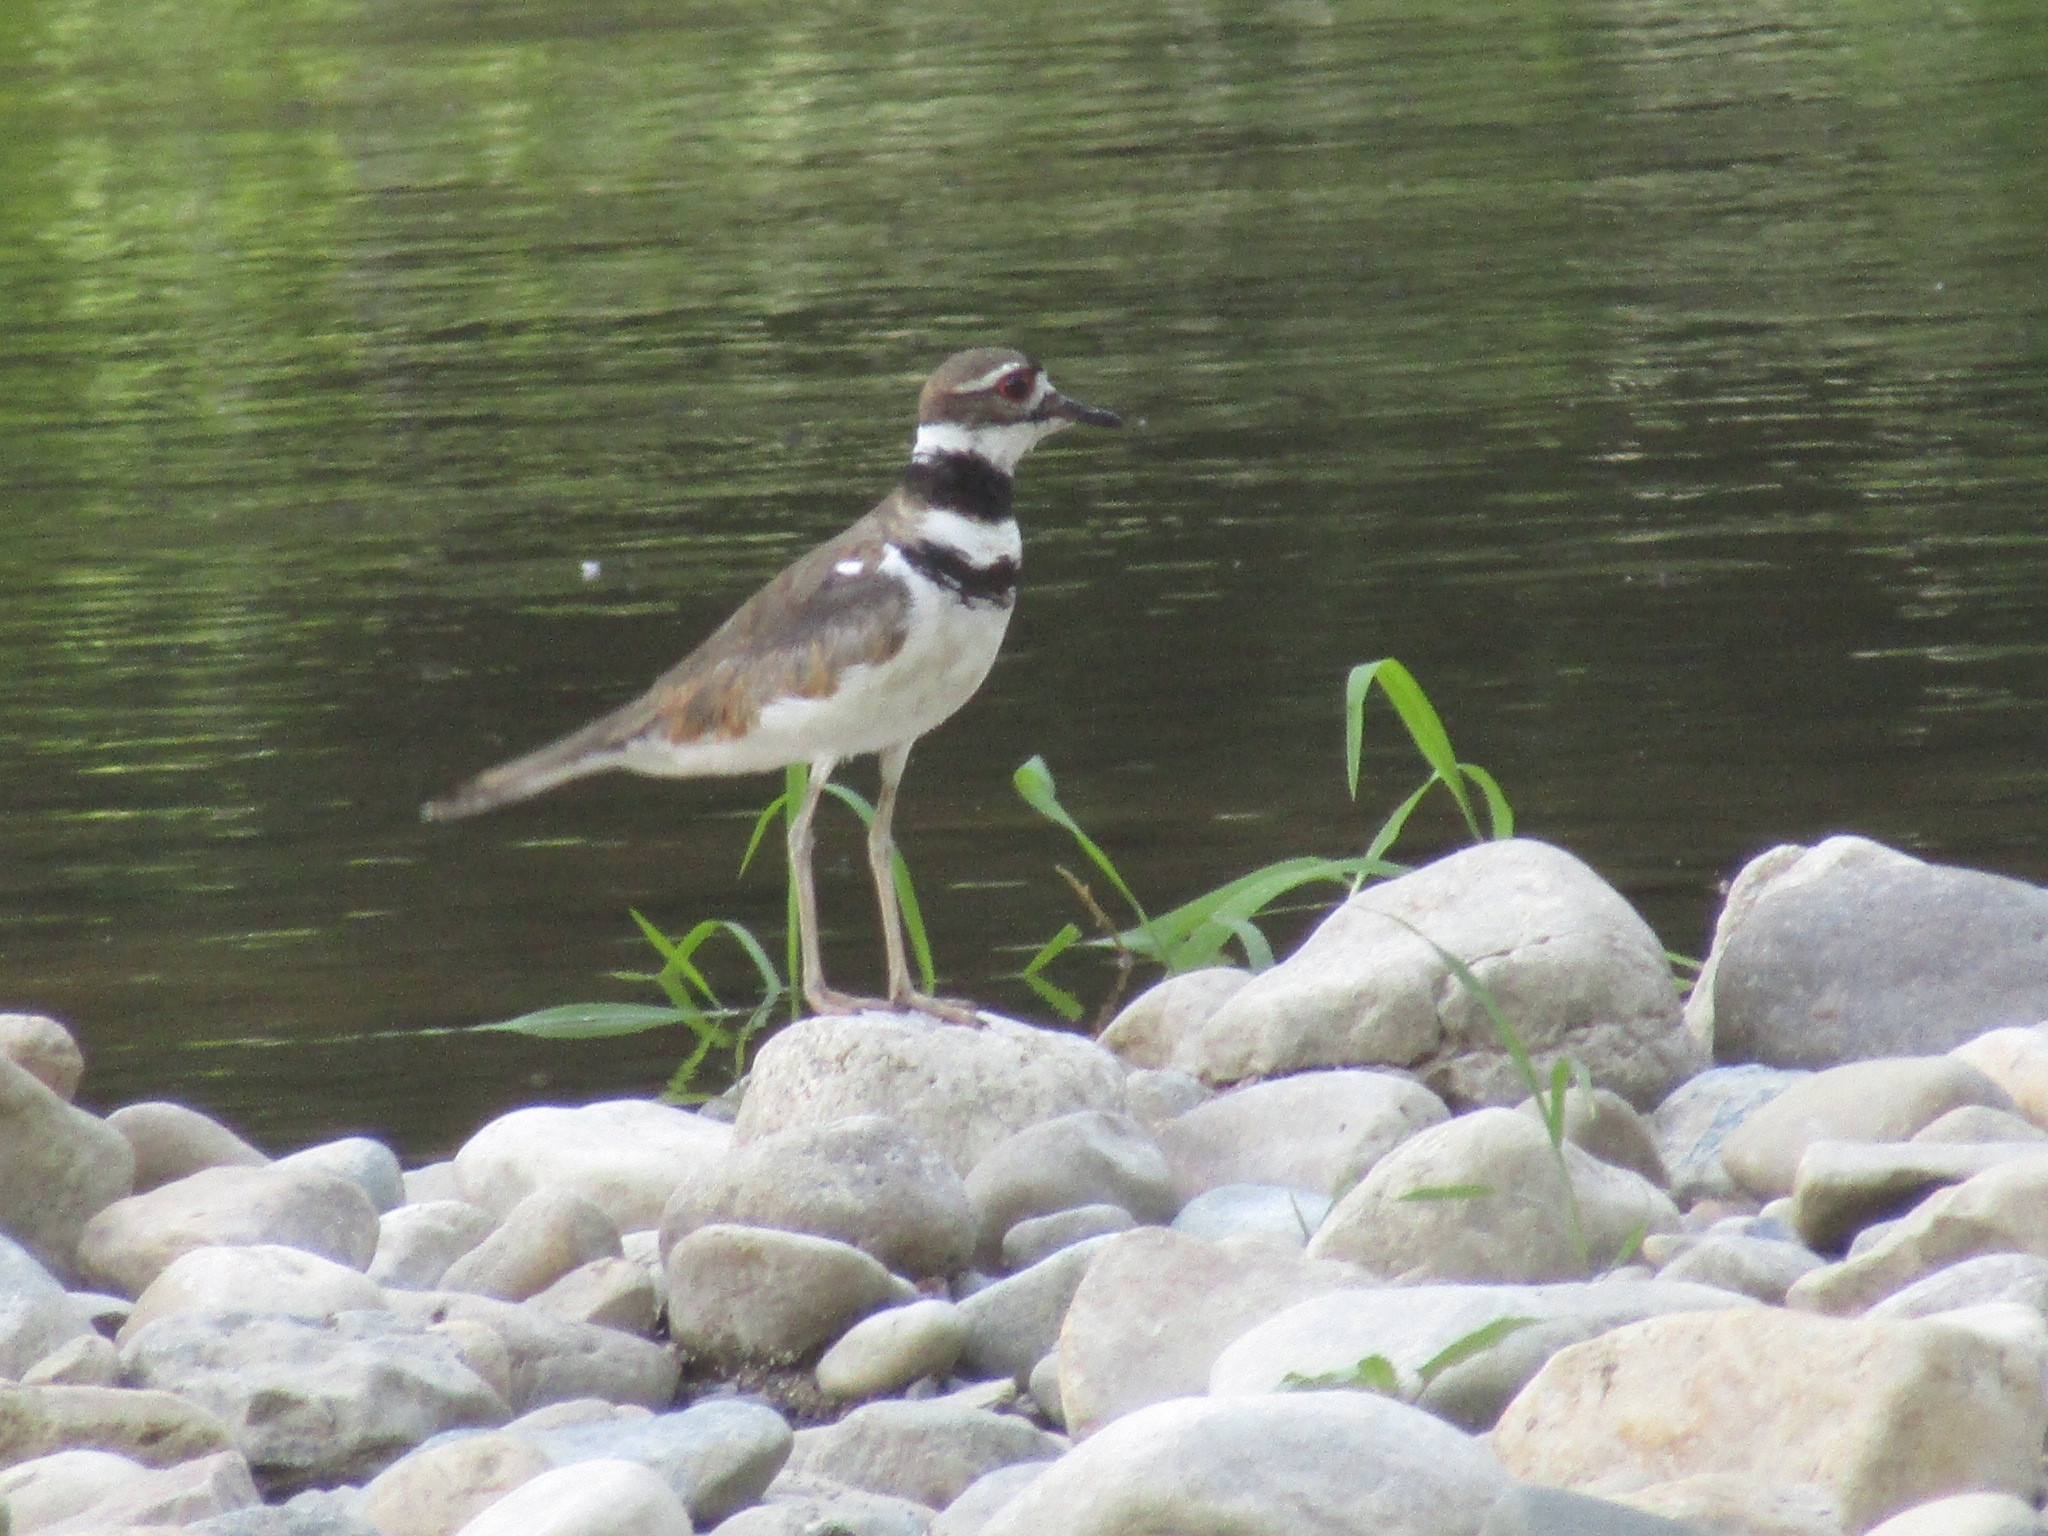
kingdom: Animalia
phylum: Chordata
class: Aves
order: Charadriiformes
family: Charadriidae
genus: Charadrius
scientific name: Charadrius vociferus
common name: Killdeer
